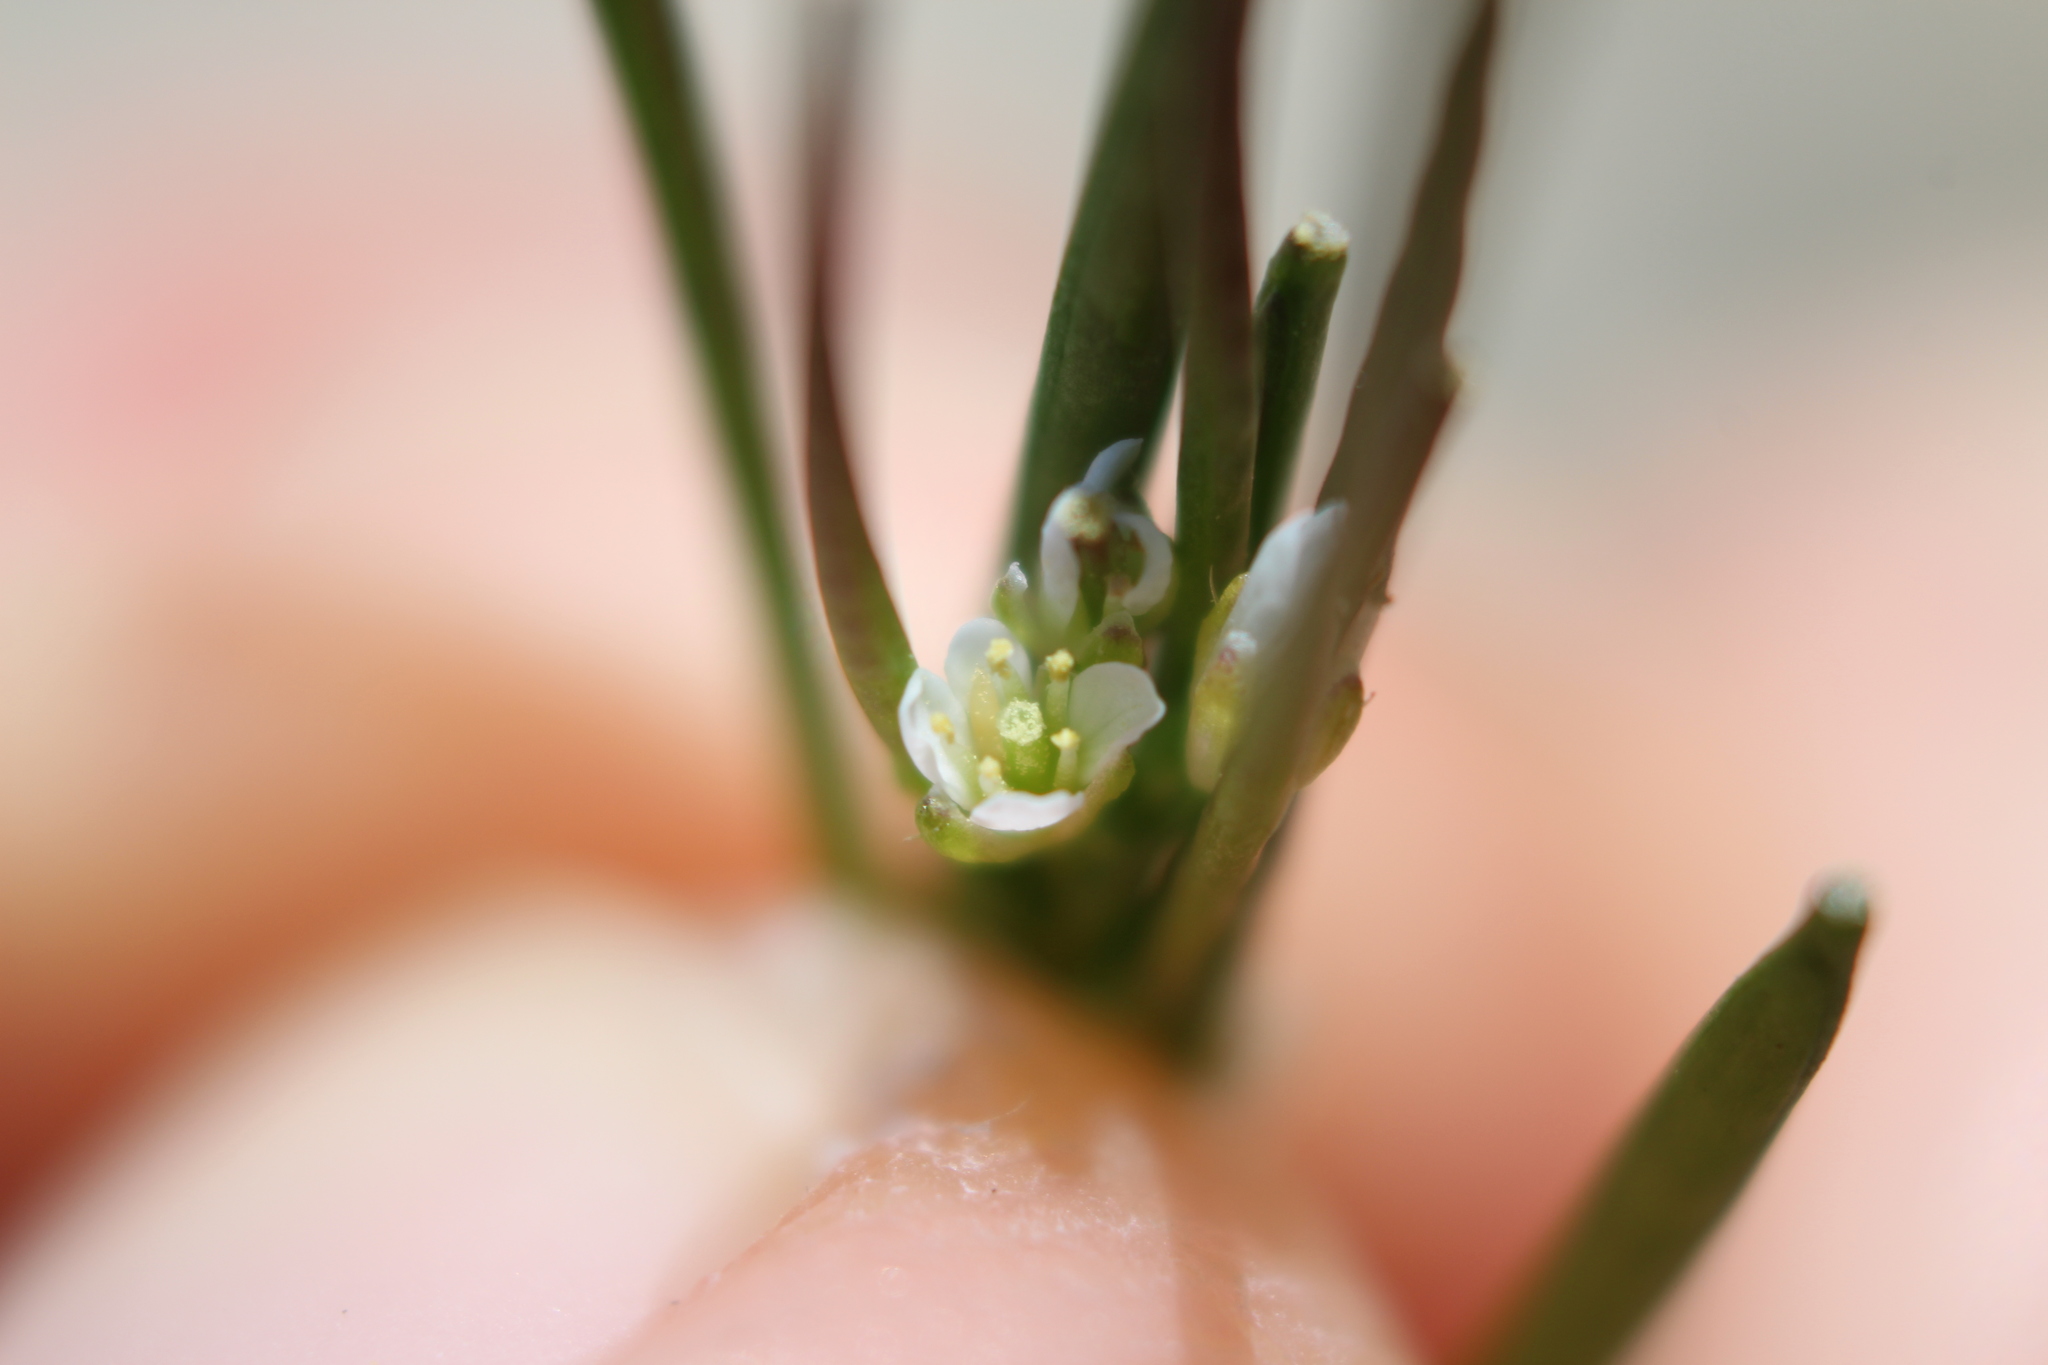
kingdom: Plantae
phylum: Tracheophyta
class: Magnoliopsida
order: Brassicales
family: Brassicaceae
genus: Cardamine
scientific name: Cardamine hirsuta
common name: Hairy bittercress
